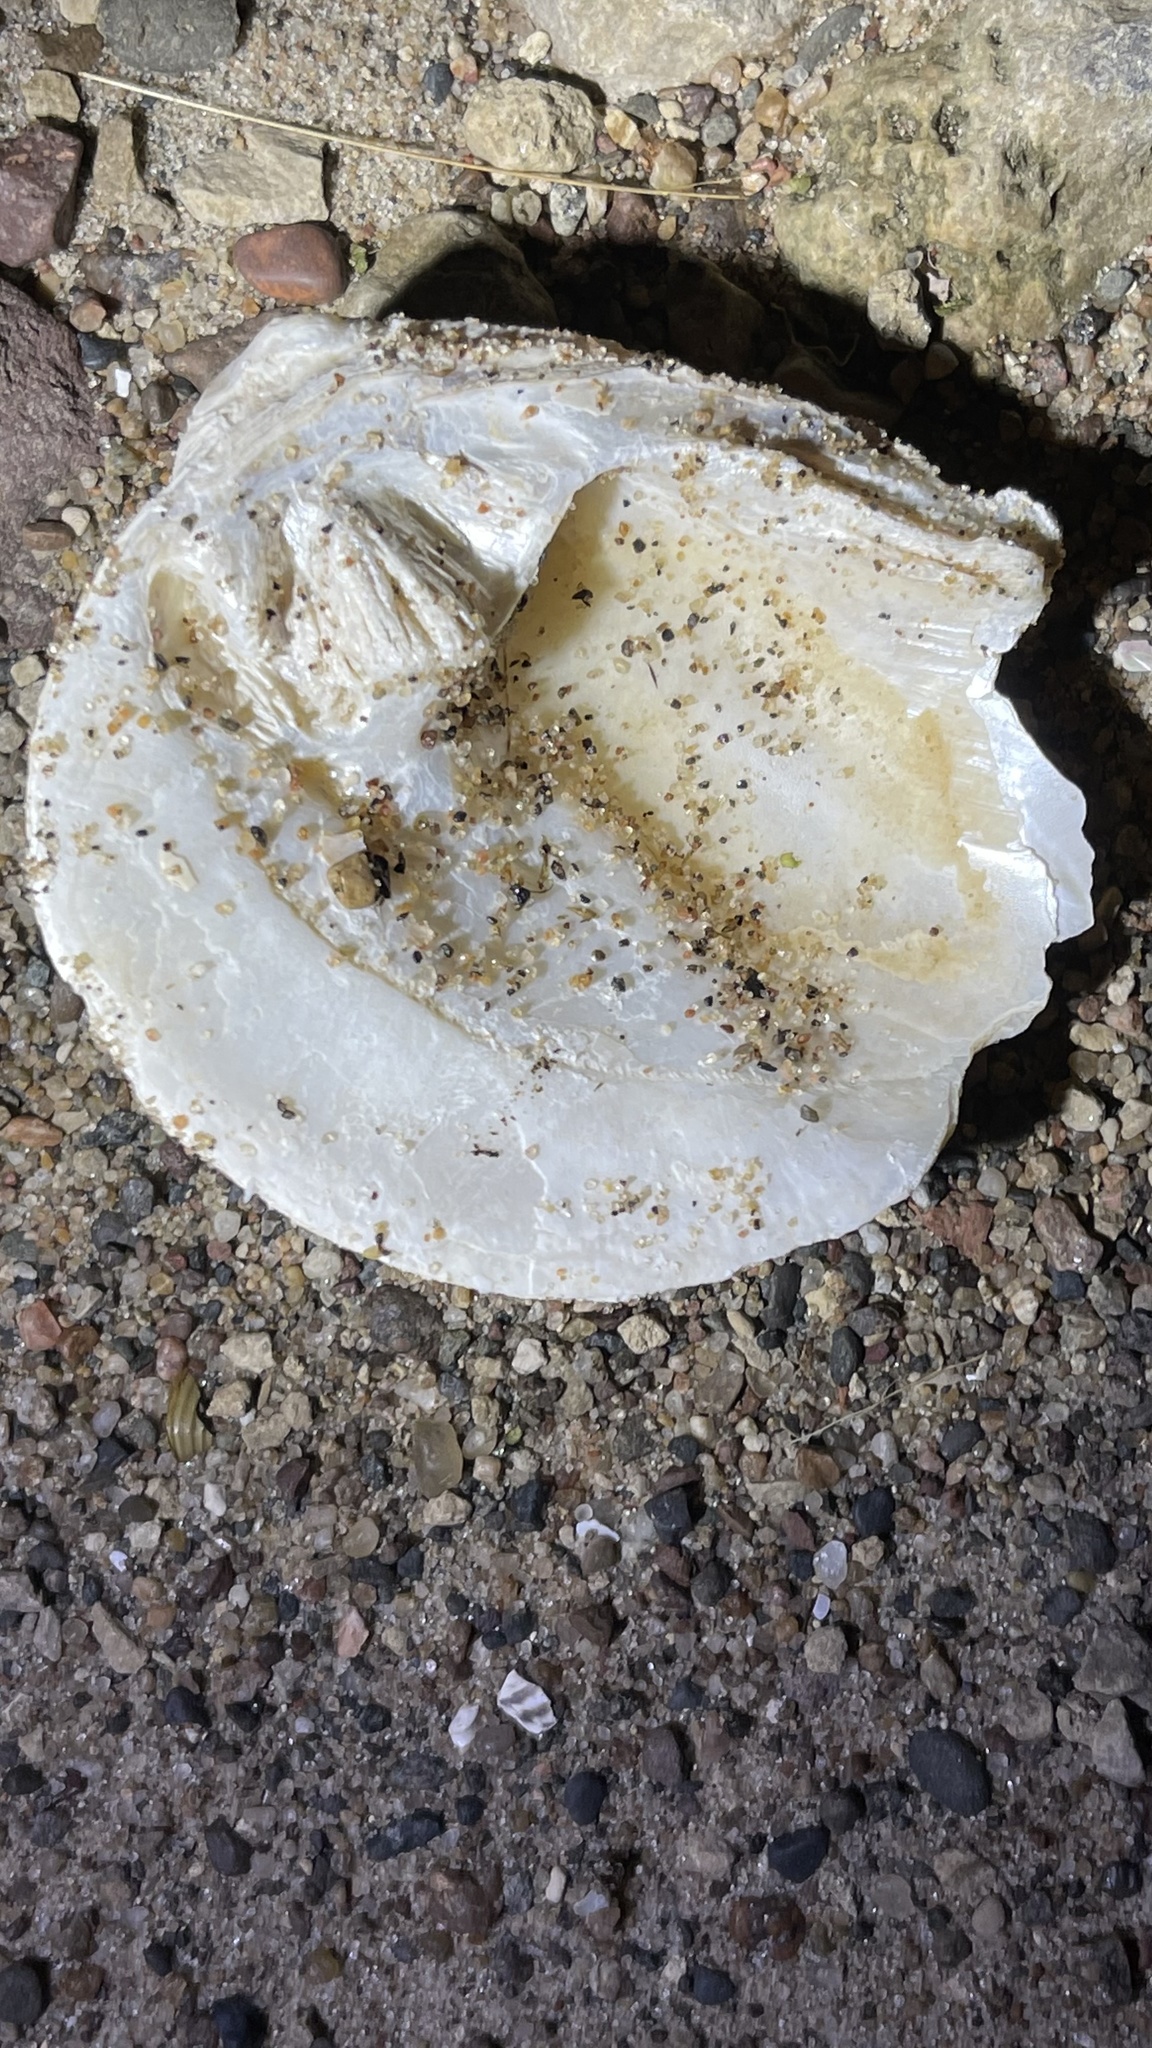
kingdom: Animalia
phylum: Mollusca
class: Bivalvia
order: Unionida
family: Unionidae
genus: Theliderma
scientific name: Theliderma metanevra
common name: Monkeyface
